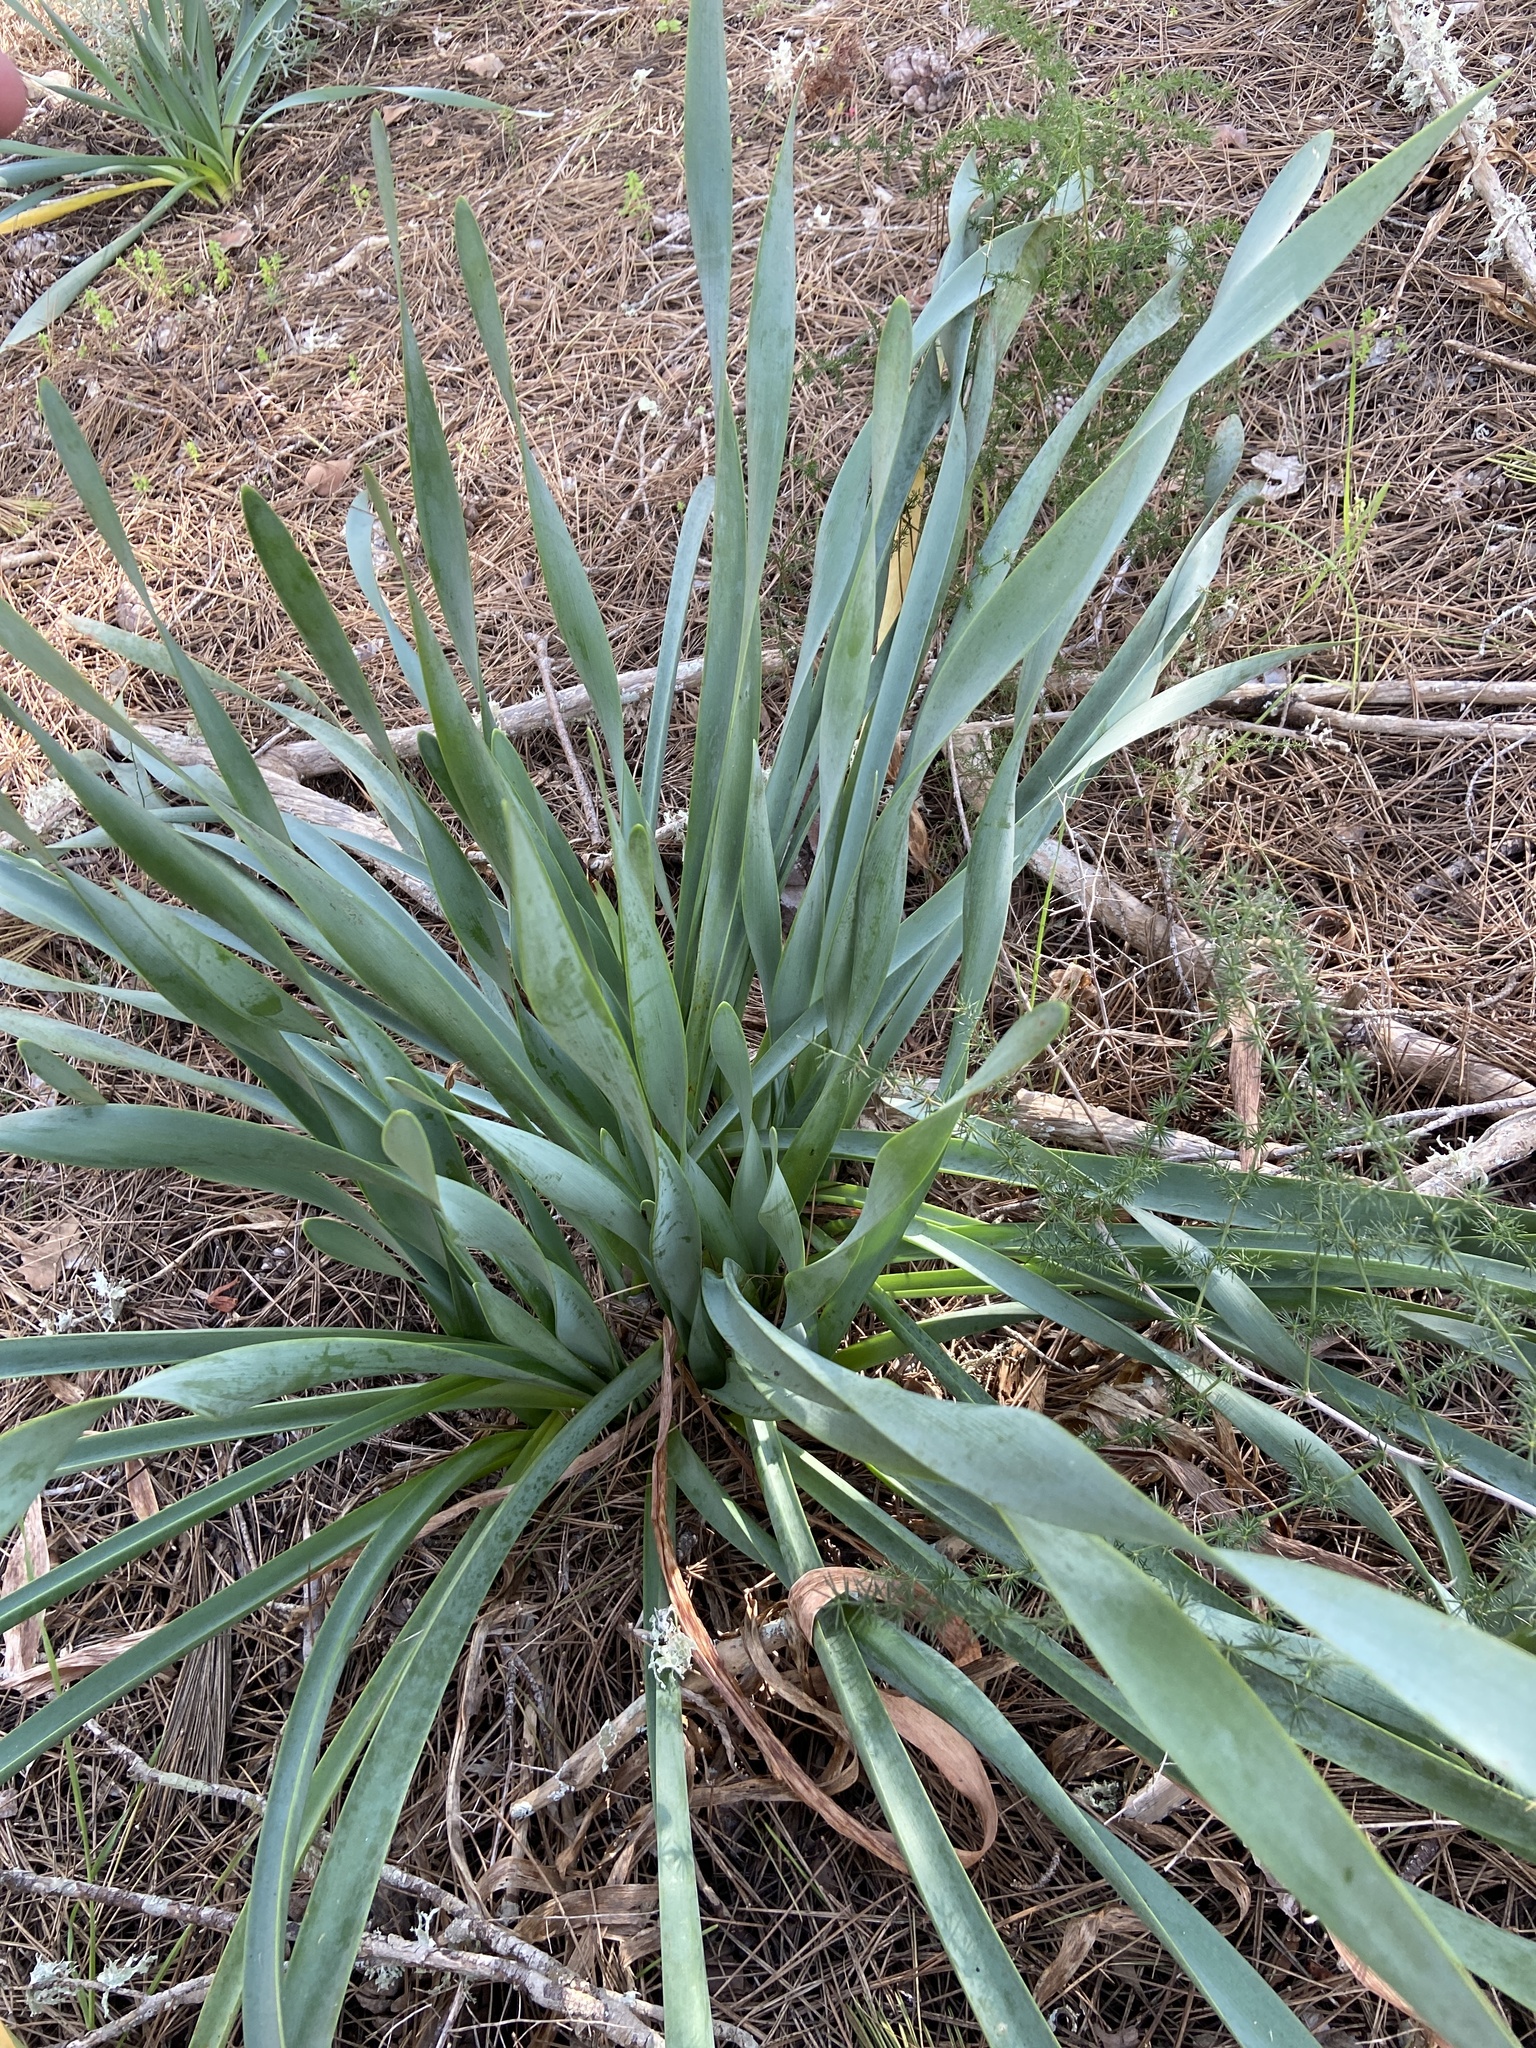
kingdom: Plantae
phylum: Tracheophyta
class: Liliopsida
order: Asparagales
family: Amaryllidaceae
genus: Pancratium
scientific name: Pancratium maritimum
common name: Sea-daffodil
